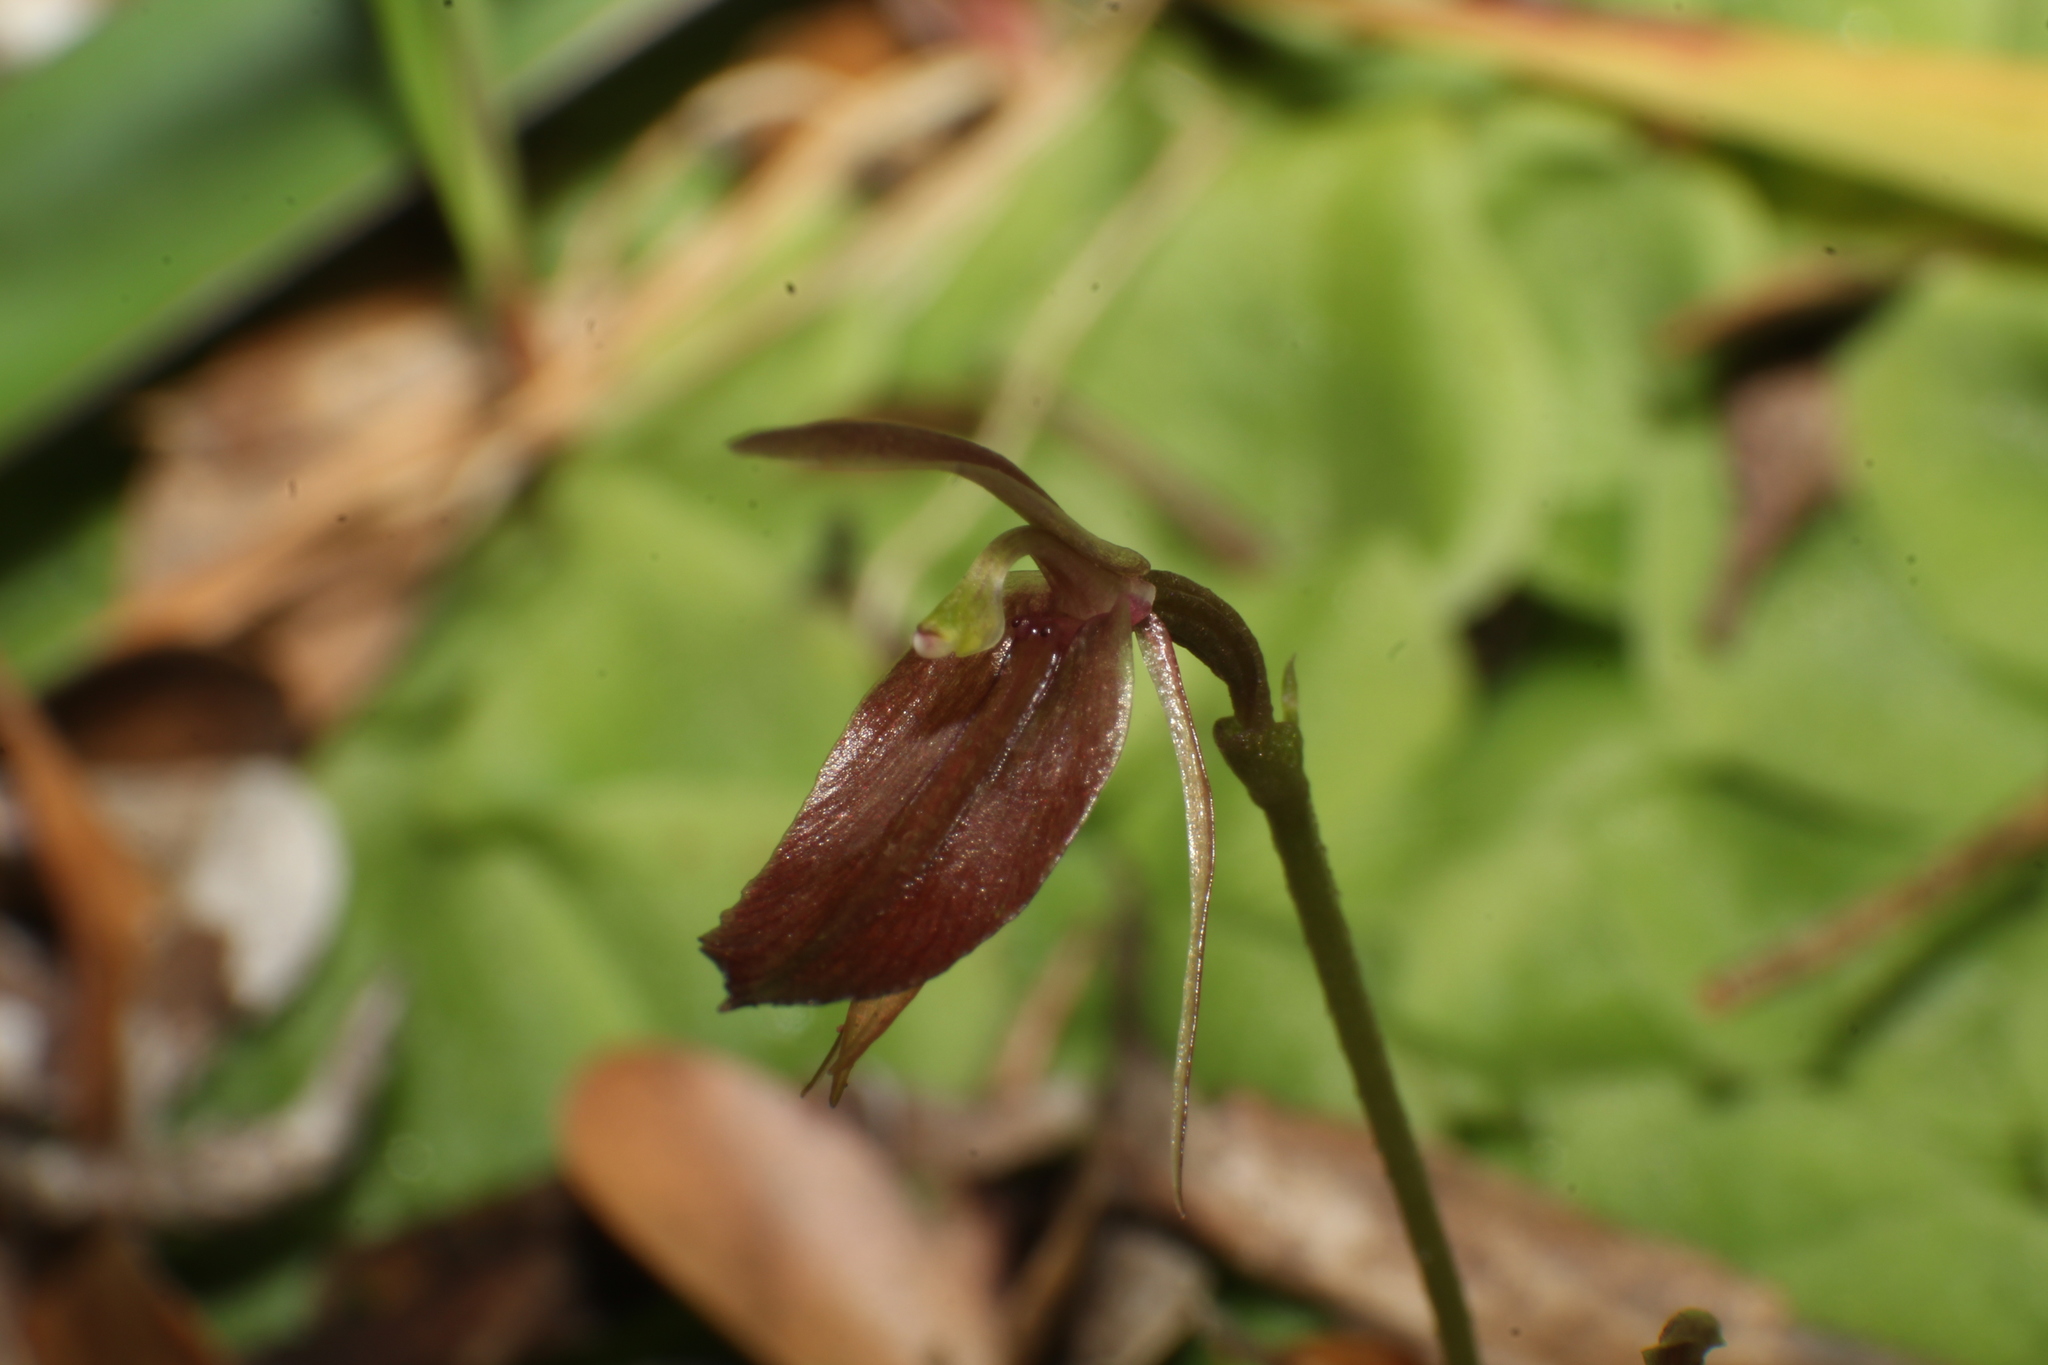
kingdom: Plantae
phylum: Tracheophyta
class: Liliopsida
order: Asparagales
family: Orchidaceae
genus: Cyrtostylis
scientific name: Cyrtostylis robusta
